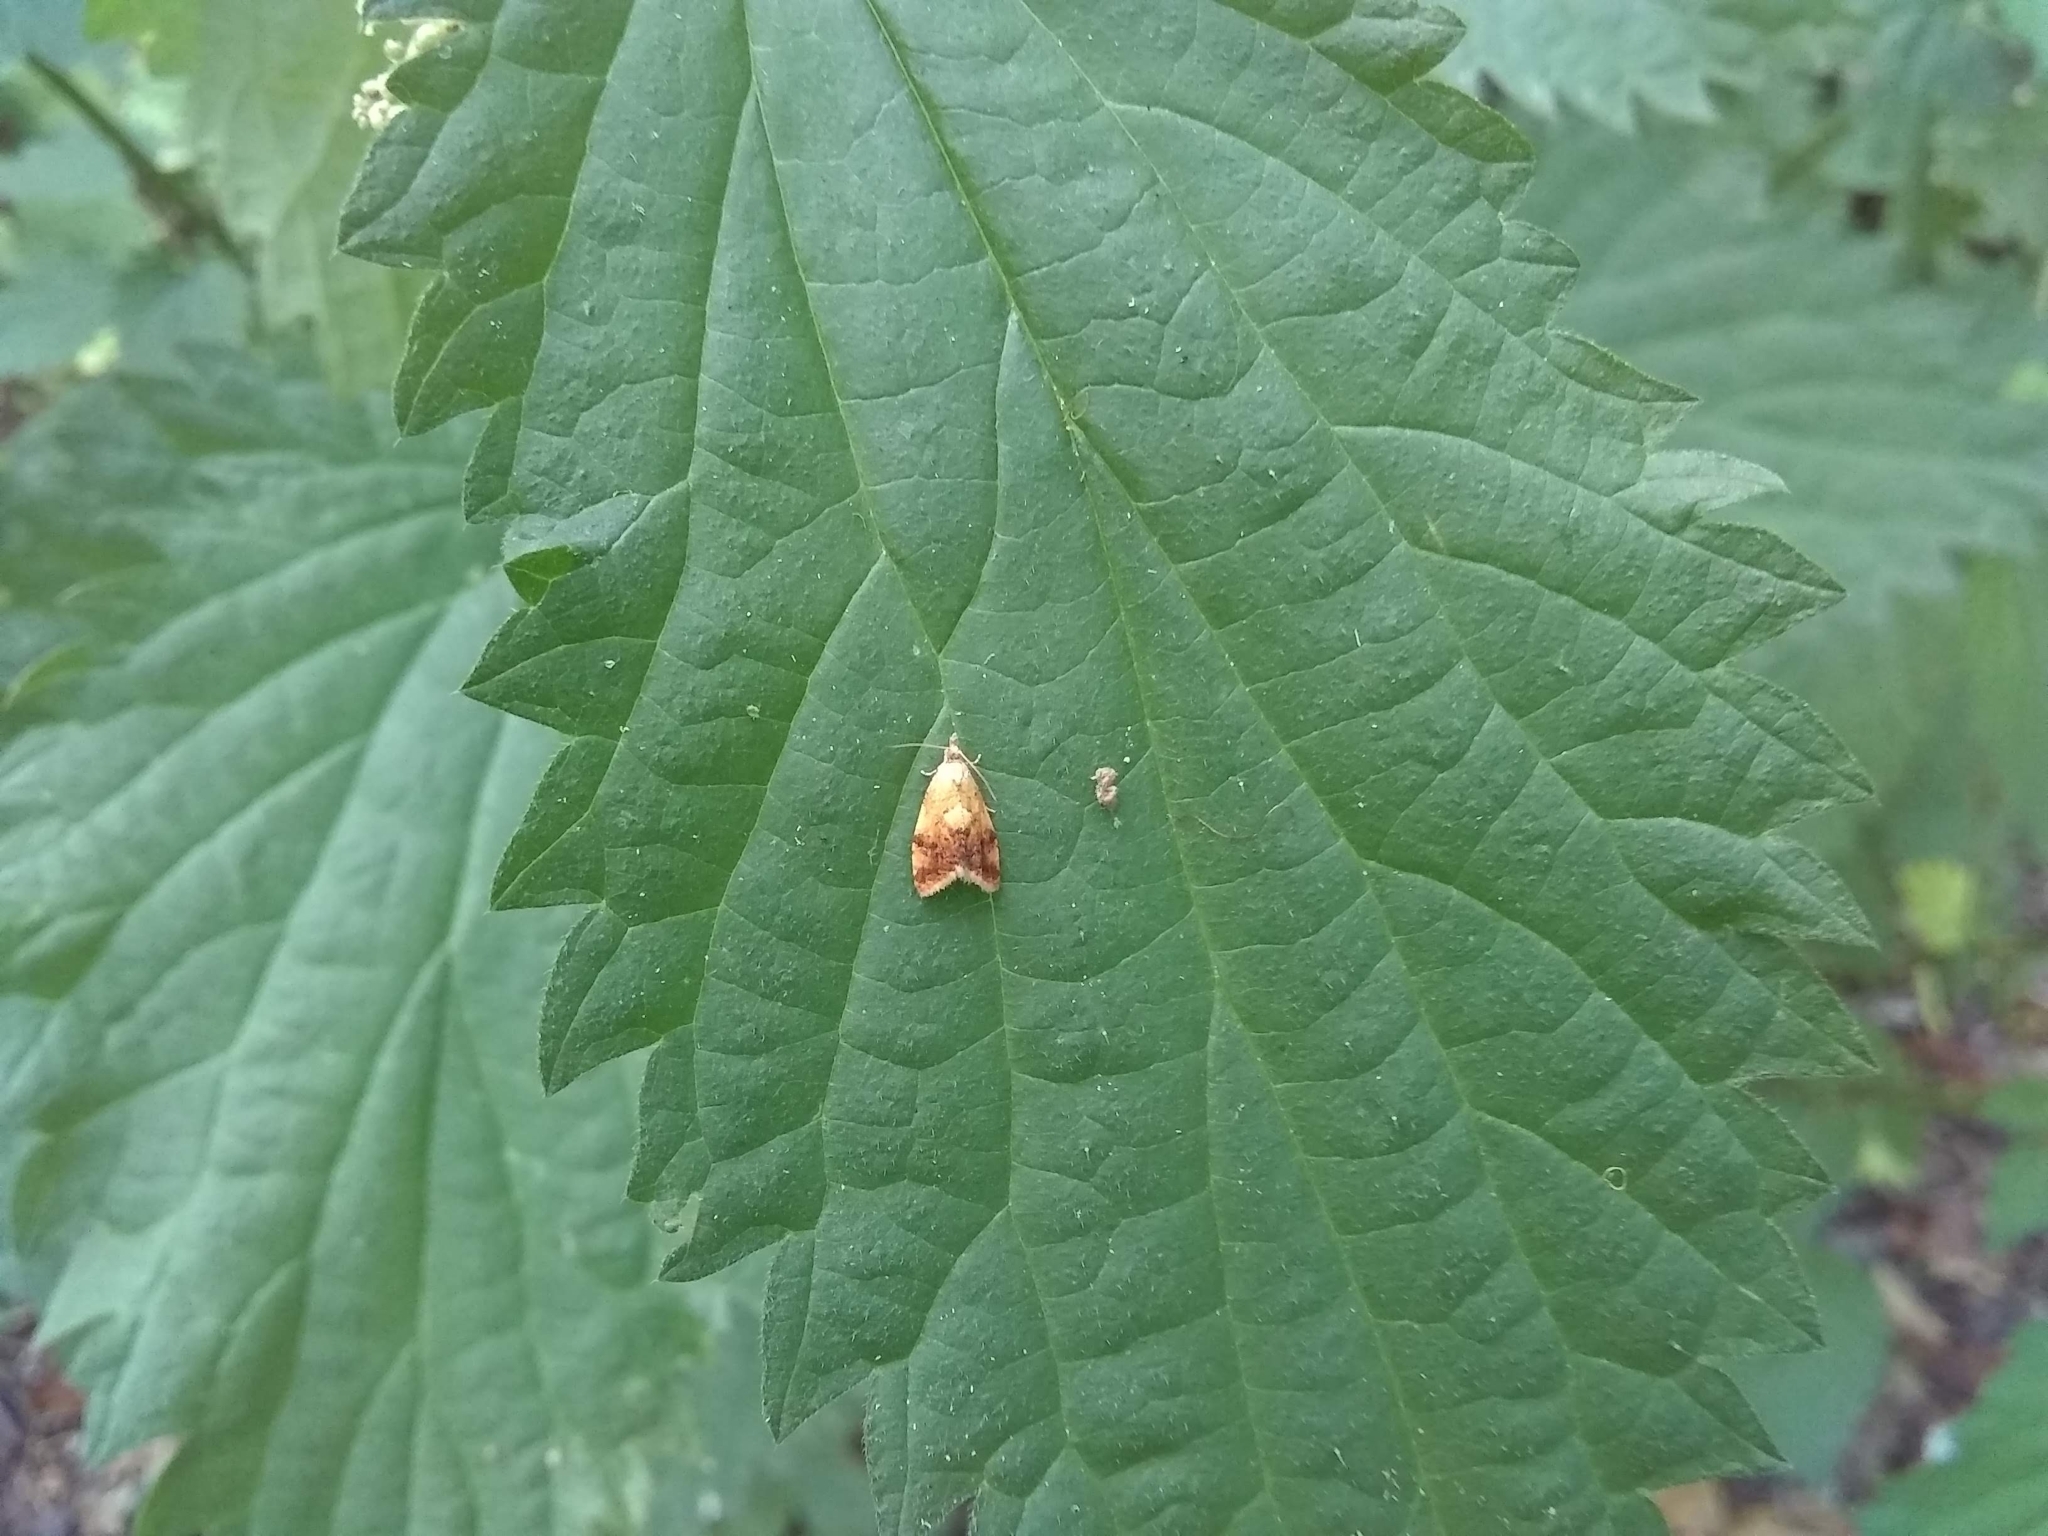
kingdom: Animalia
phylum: Arthropoda
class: Insecta
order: Lepidoptera
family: Tortricidae
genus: Pseudargyrotoza
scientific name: Pseudargyrotoza conwagana
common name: Yellow-spot twist
